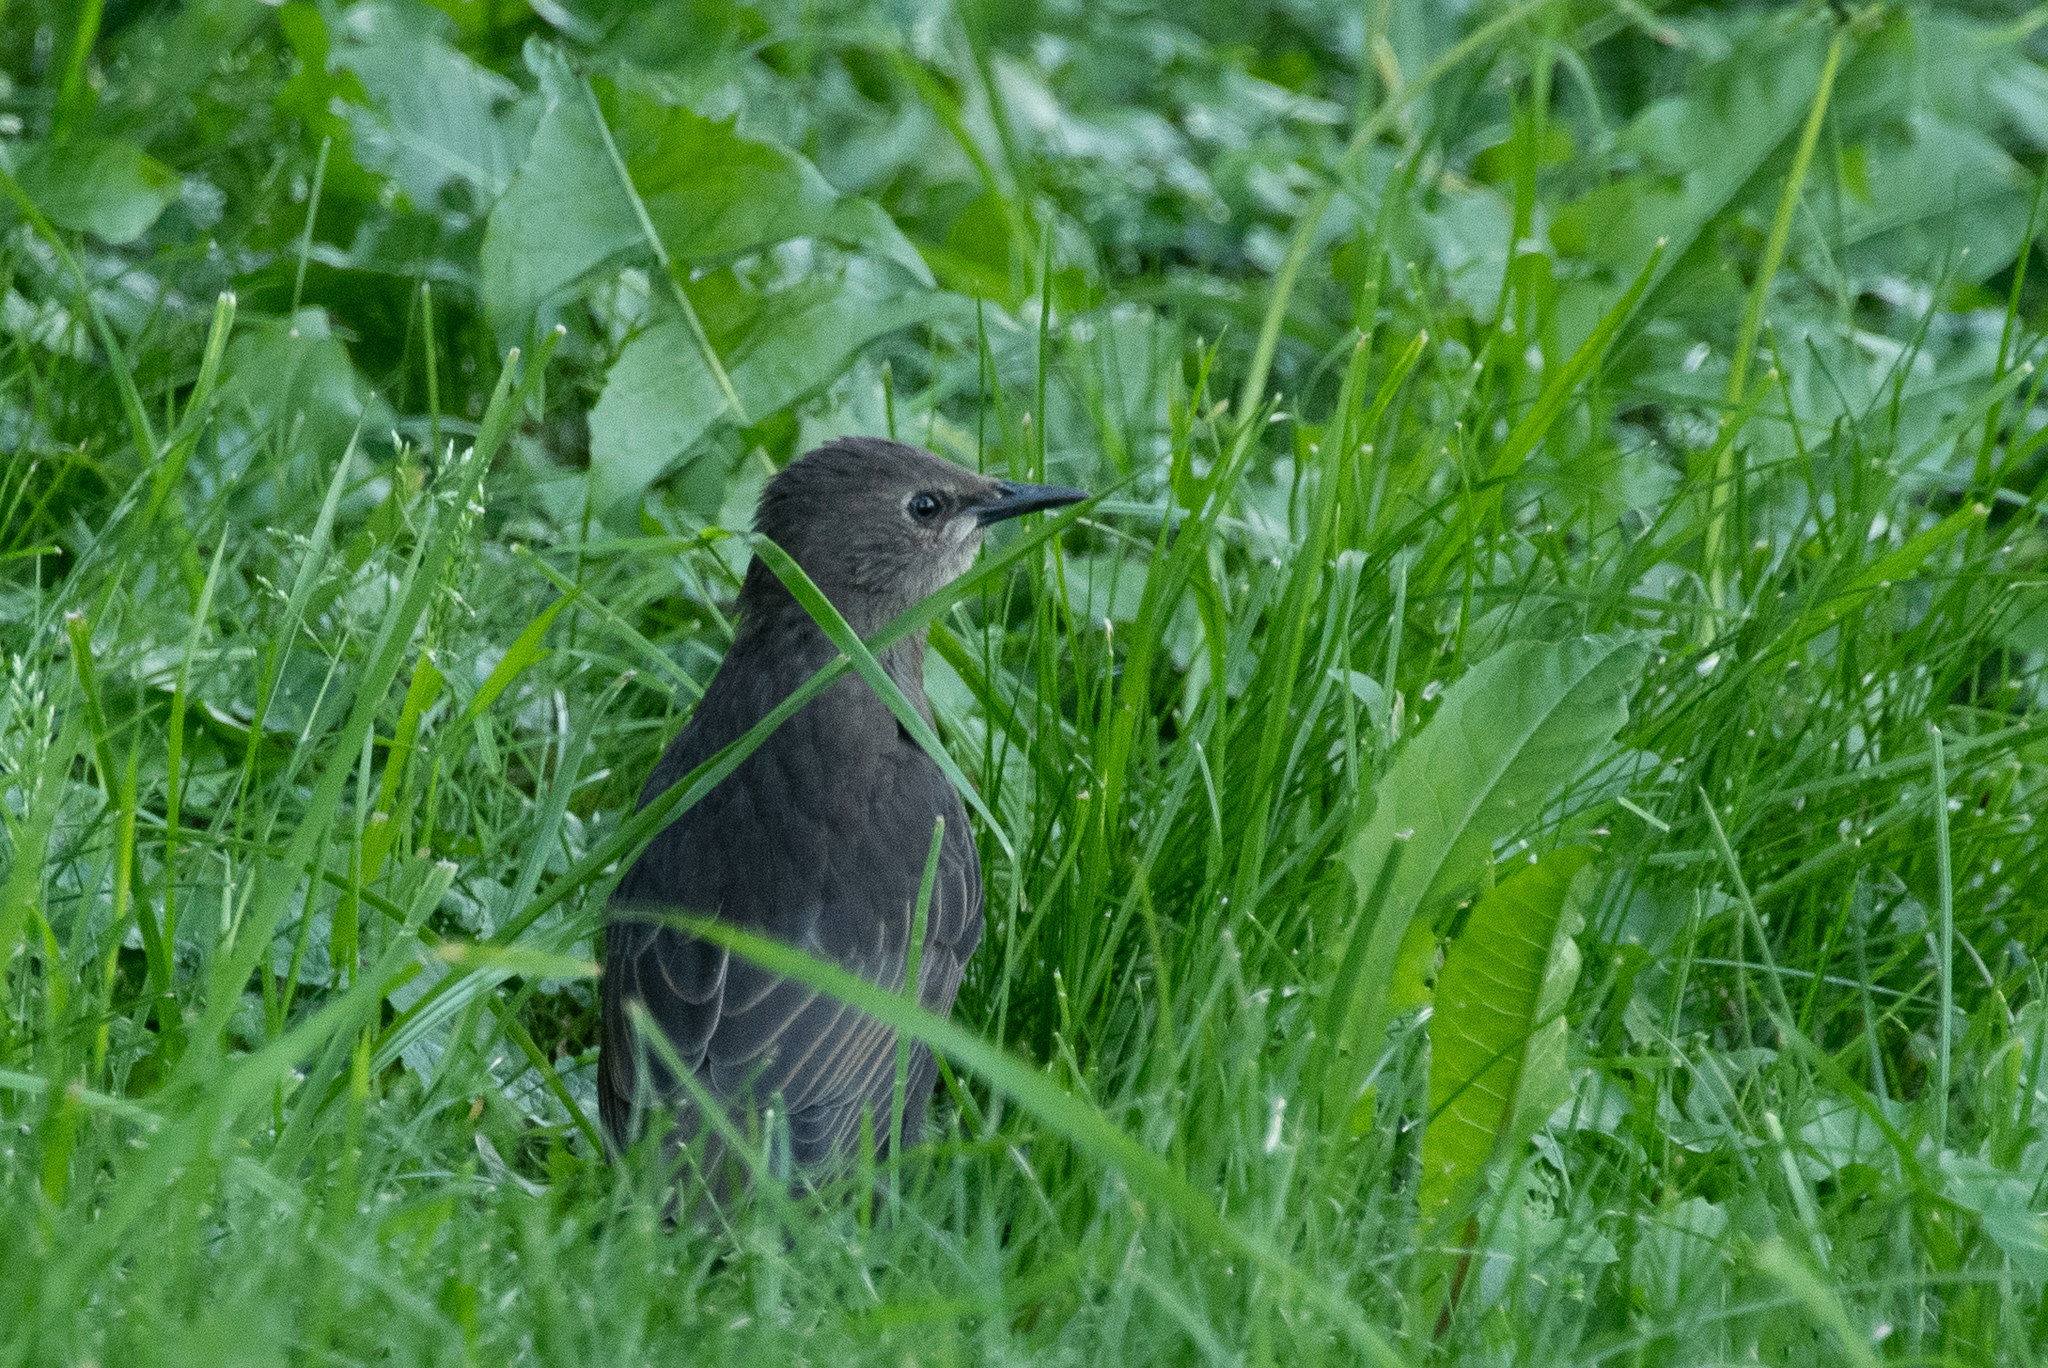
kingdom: Animalia
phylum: Chordata
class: Aves
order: Passeriformes
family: Sturnidae
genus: Sturnus
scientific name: Sturnus vulgaris
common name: Common starling
